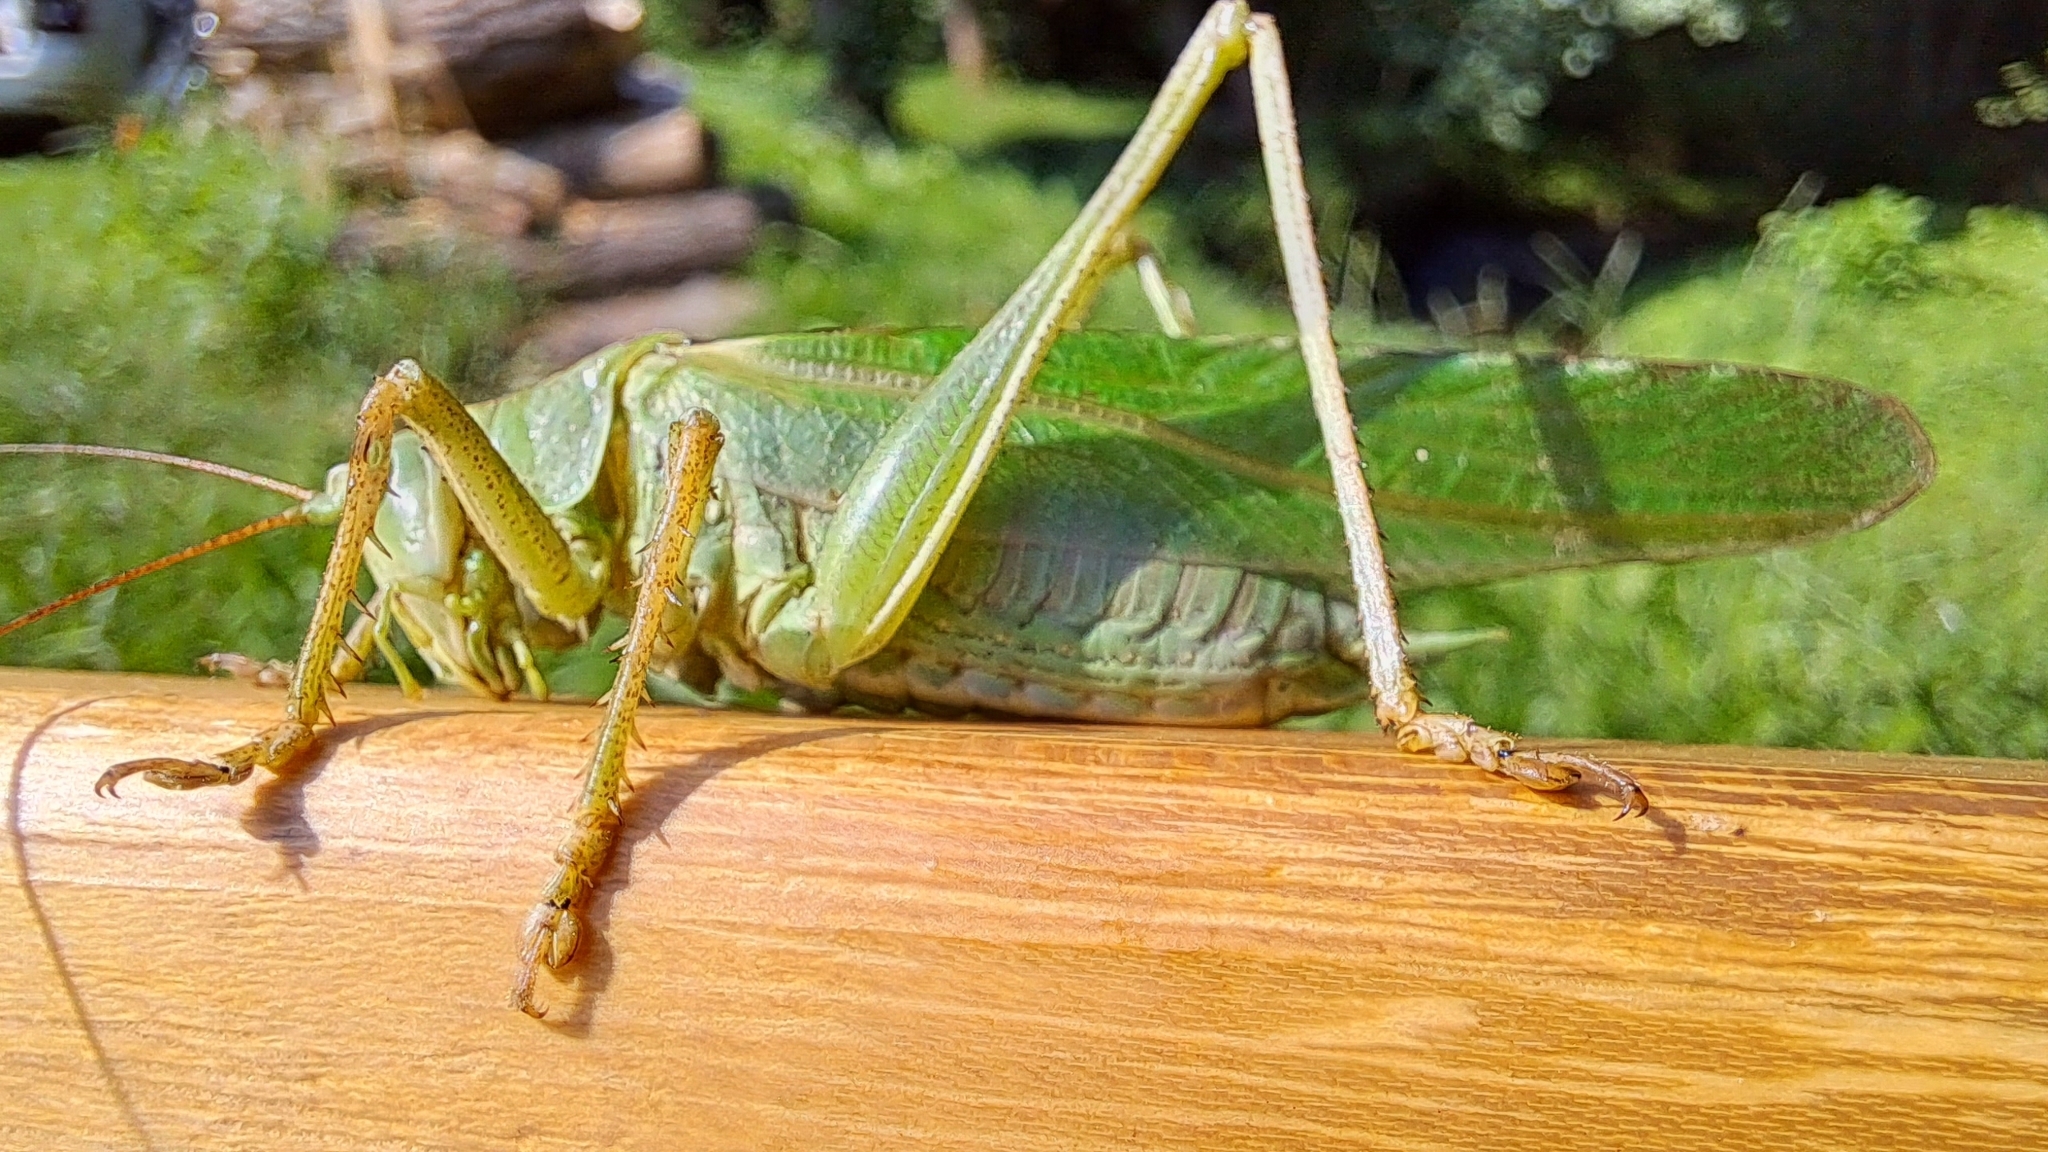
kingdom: Animalia
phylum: Arthropoda
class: Insecta
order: Orthoptera
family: Tettigoniidae
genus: Tettigonia
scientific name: Tettigonia viridissima
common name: Great green bush-cricket
